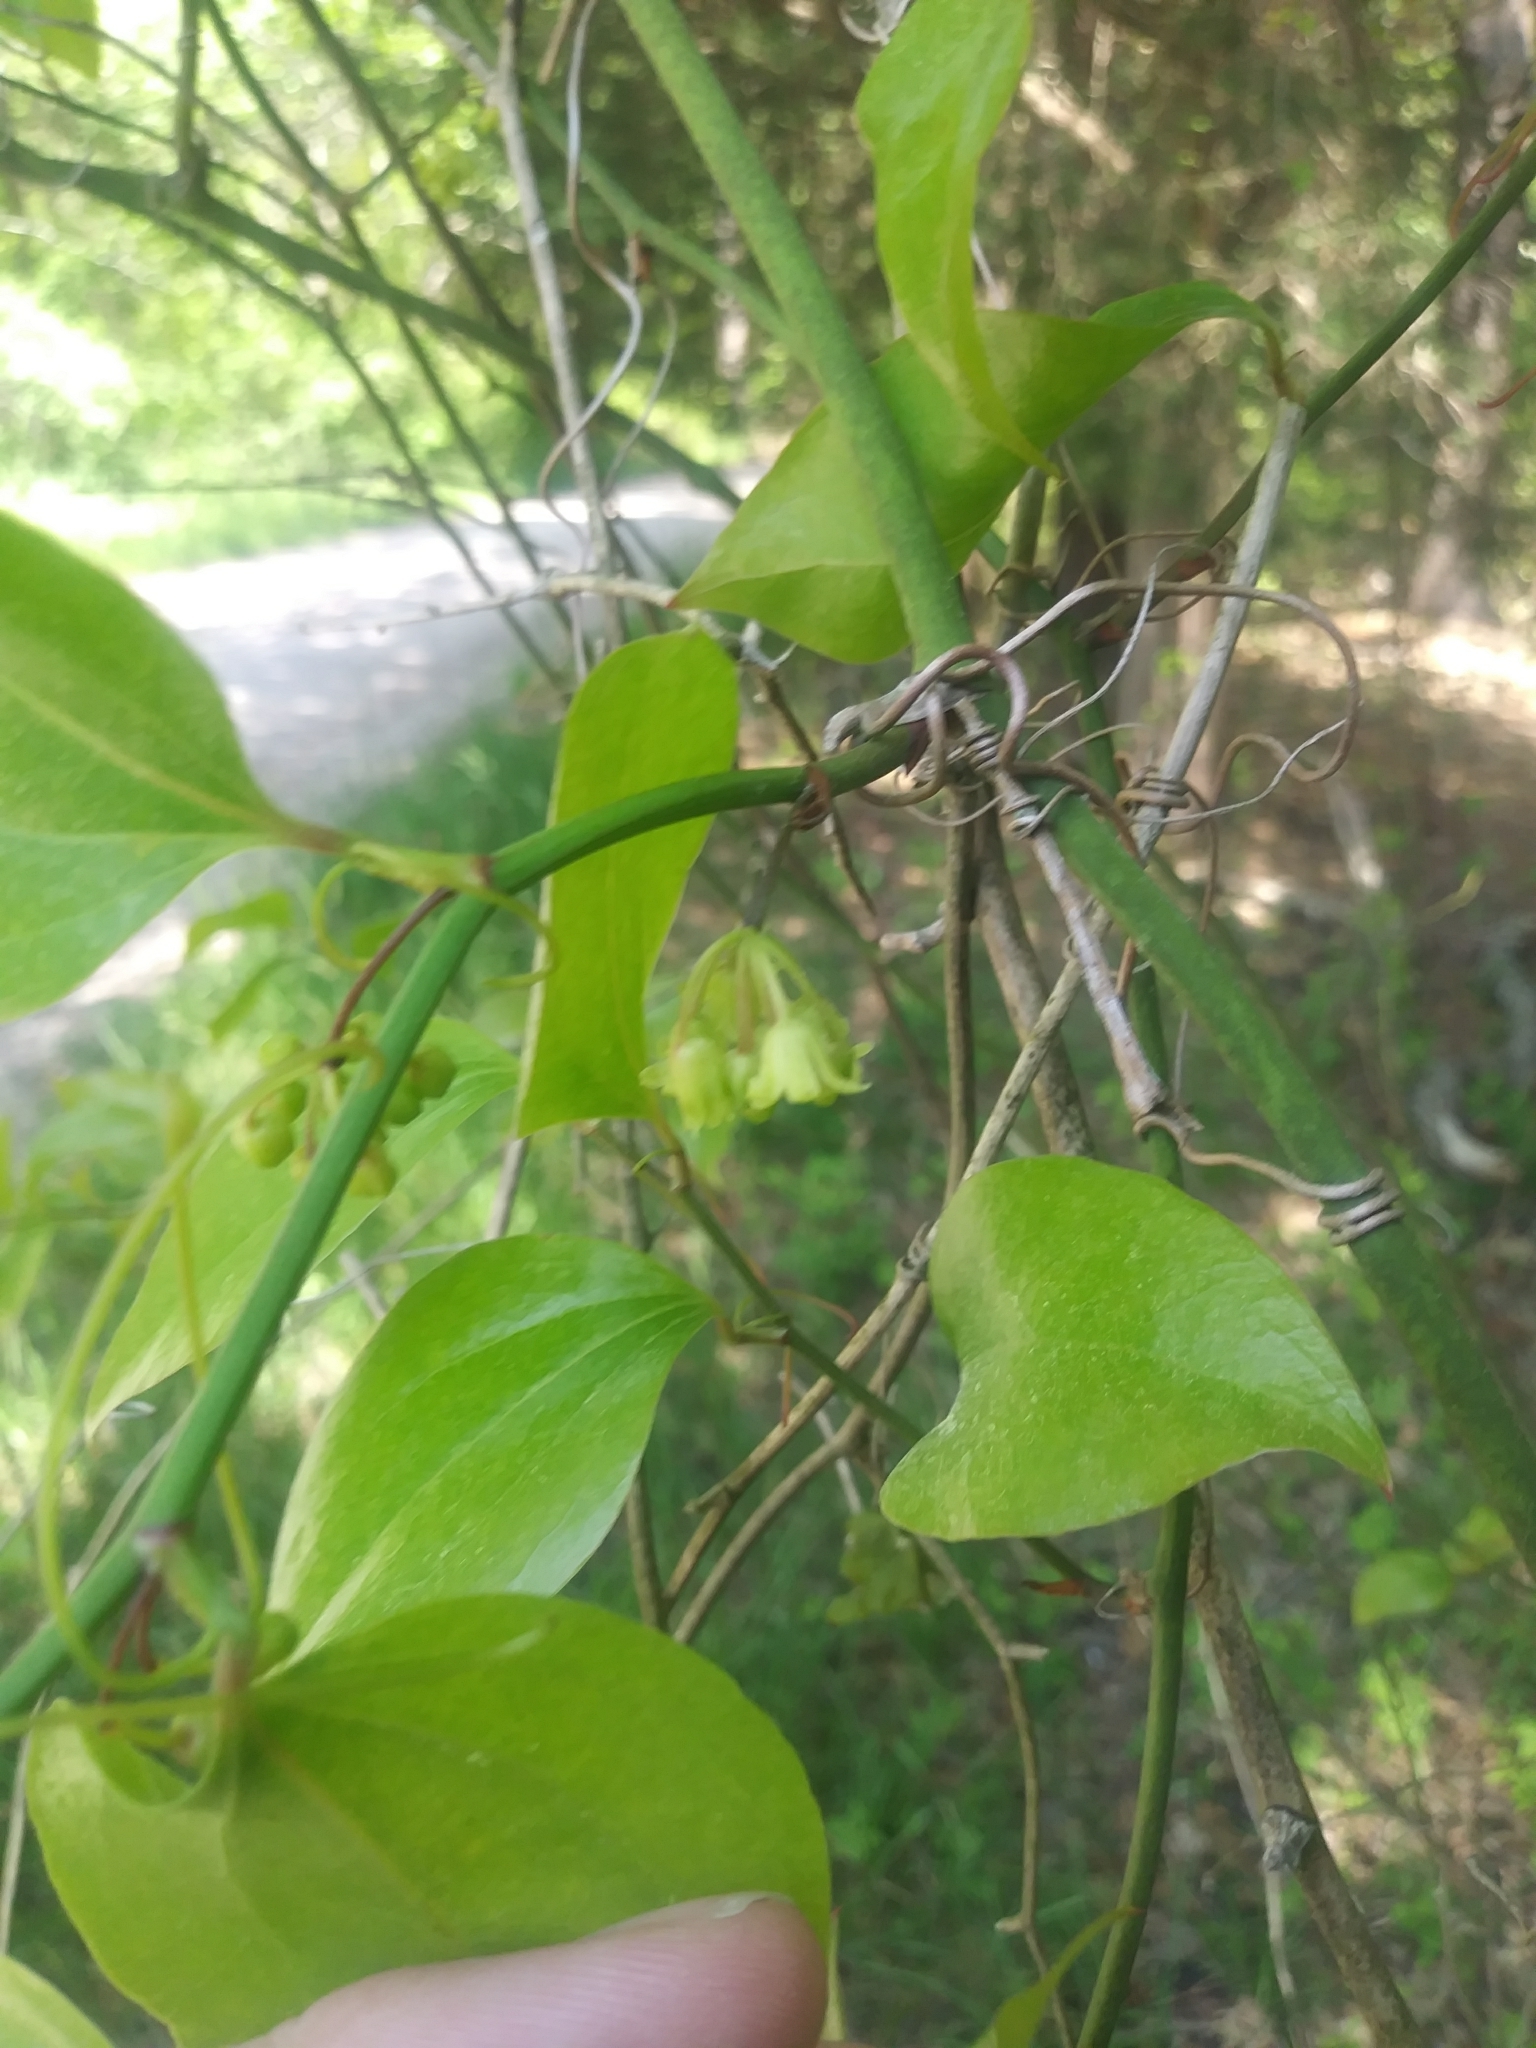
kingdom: Plantae
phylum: Tracheophyta
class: Liliopsida
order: Liliales
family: Smilacaceae
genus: Smilax
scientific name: Smilax rotundifolia
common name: Bullbriar
